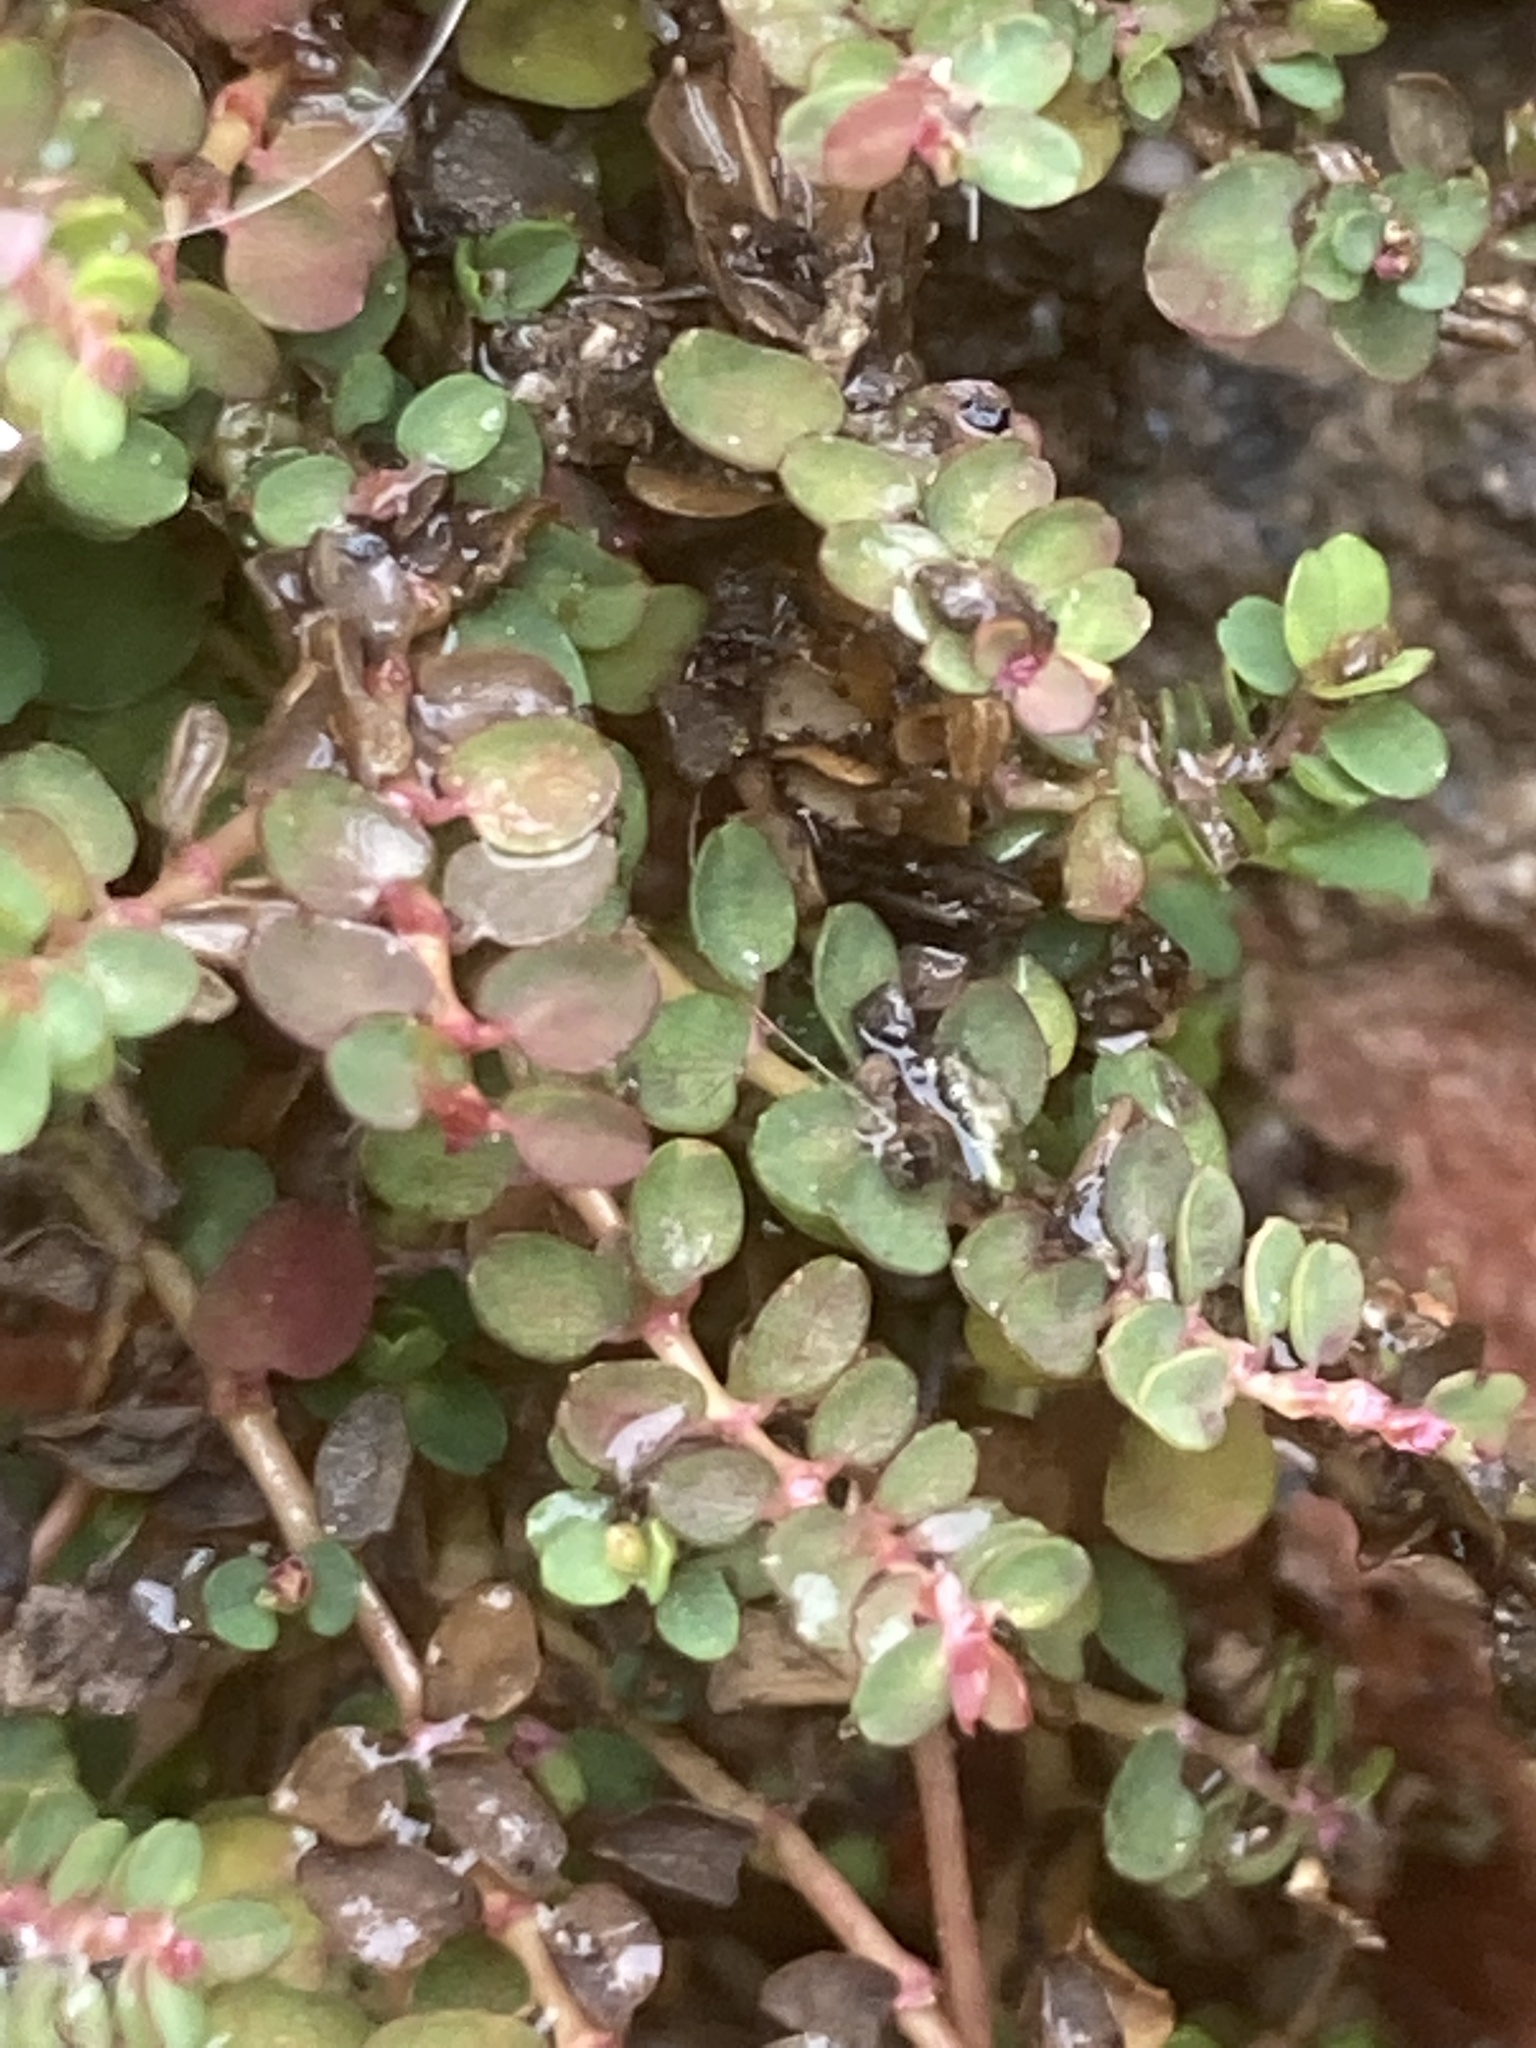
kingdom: Plantae
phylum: Tracheophyta
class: Magnoliopsida
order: Malpighiales
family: Euphorbiaceae
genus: Euphorbia
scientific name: Euphorbia serpens
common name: Matted sandmat
